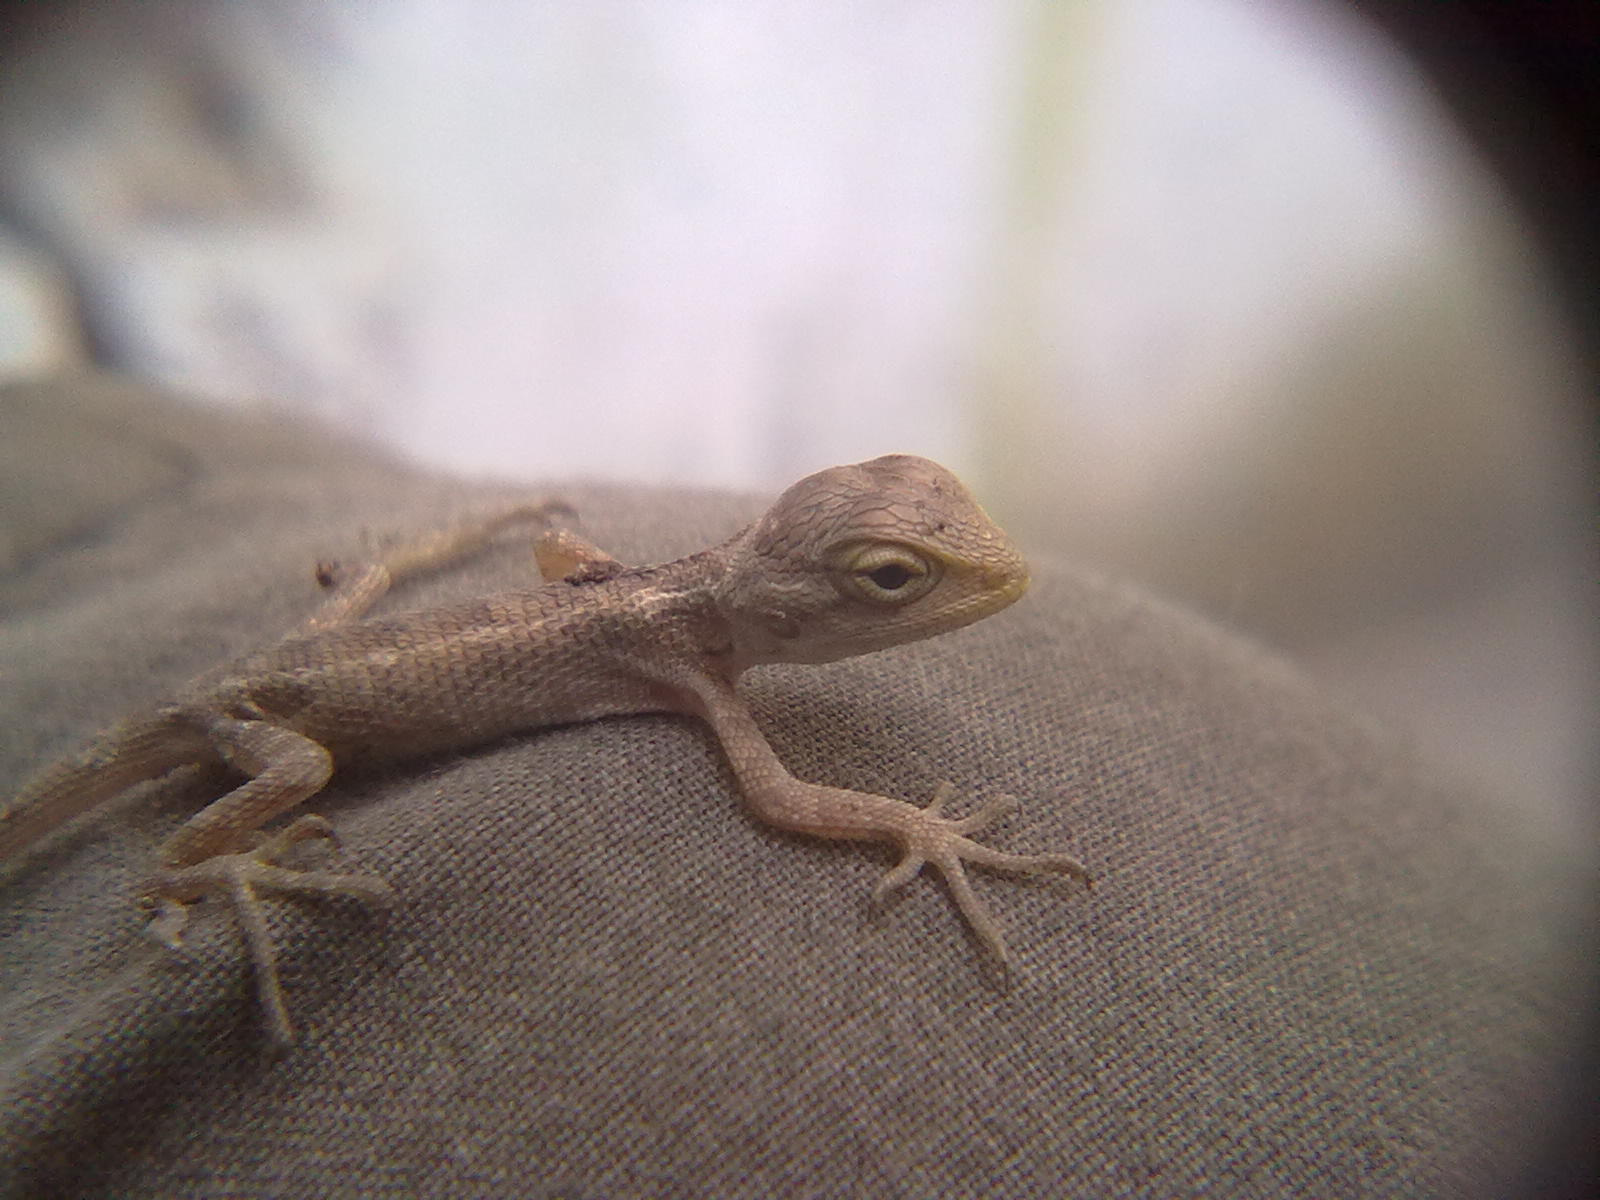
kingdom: Animalia
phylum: Chordata
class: Squamata
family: Agamidae
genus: Calotes
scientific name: Calotes versicolor
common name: Oriental garden lizard
